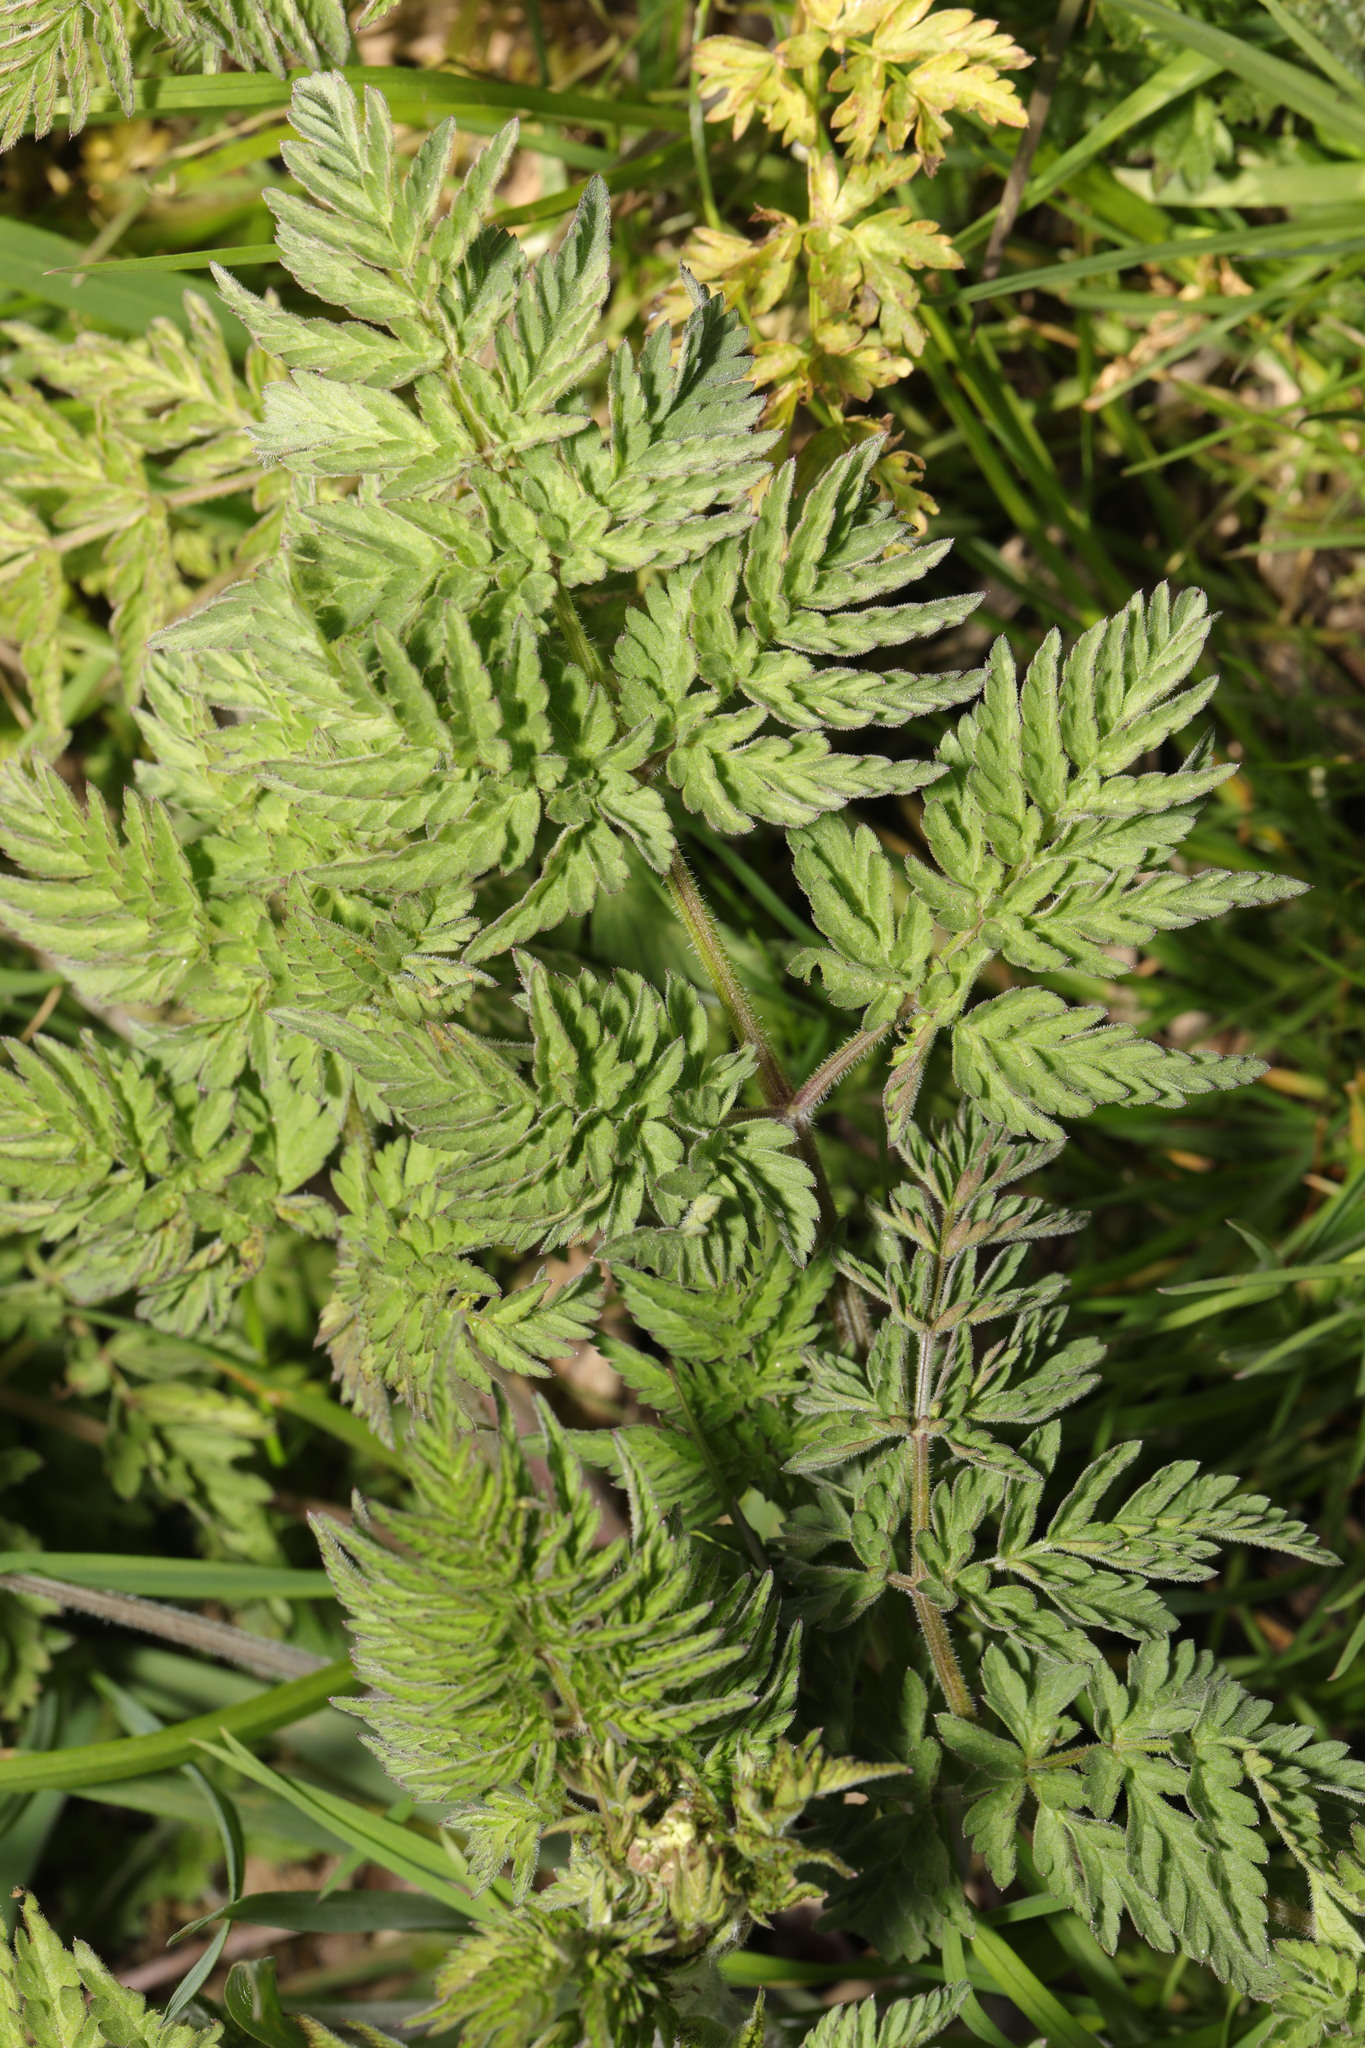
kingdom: Plantae
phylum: Tracheophyta
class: Magnoliopsida
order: Apiales
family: Apiaceae
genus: Anthriscus
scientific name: Anthriscus sylvestris
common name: Cow parsley
